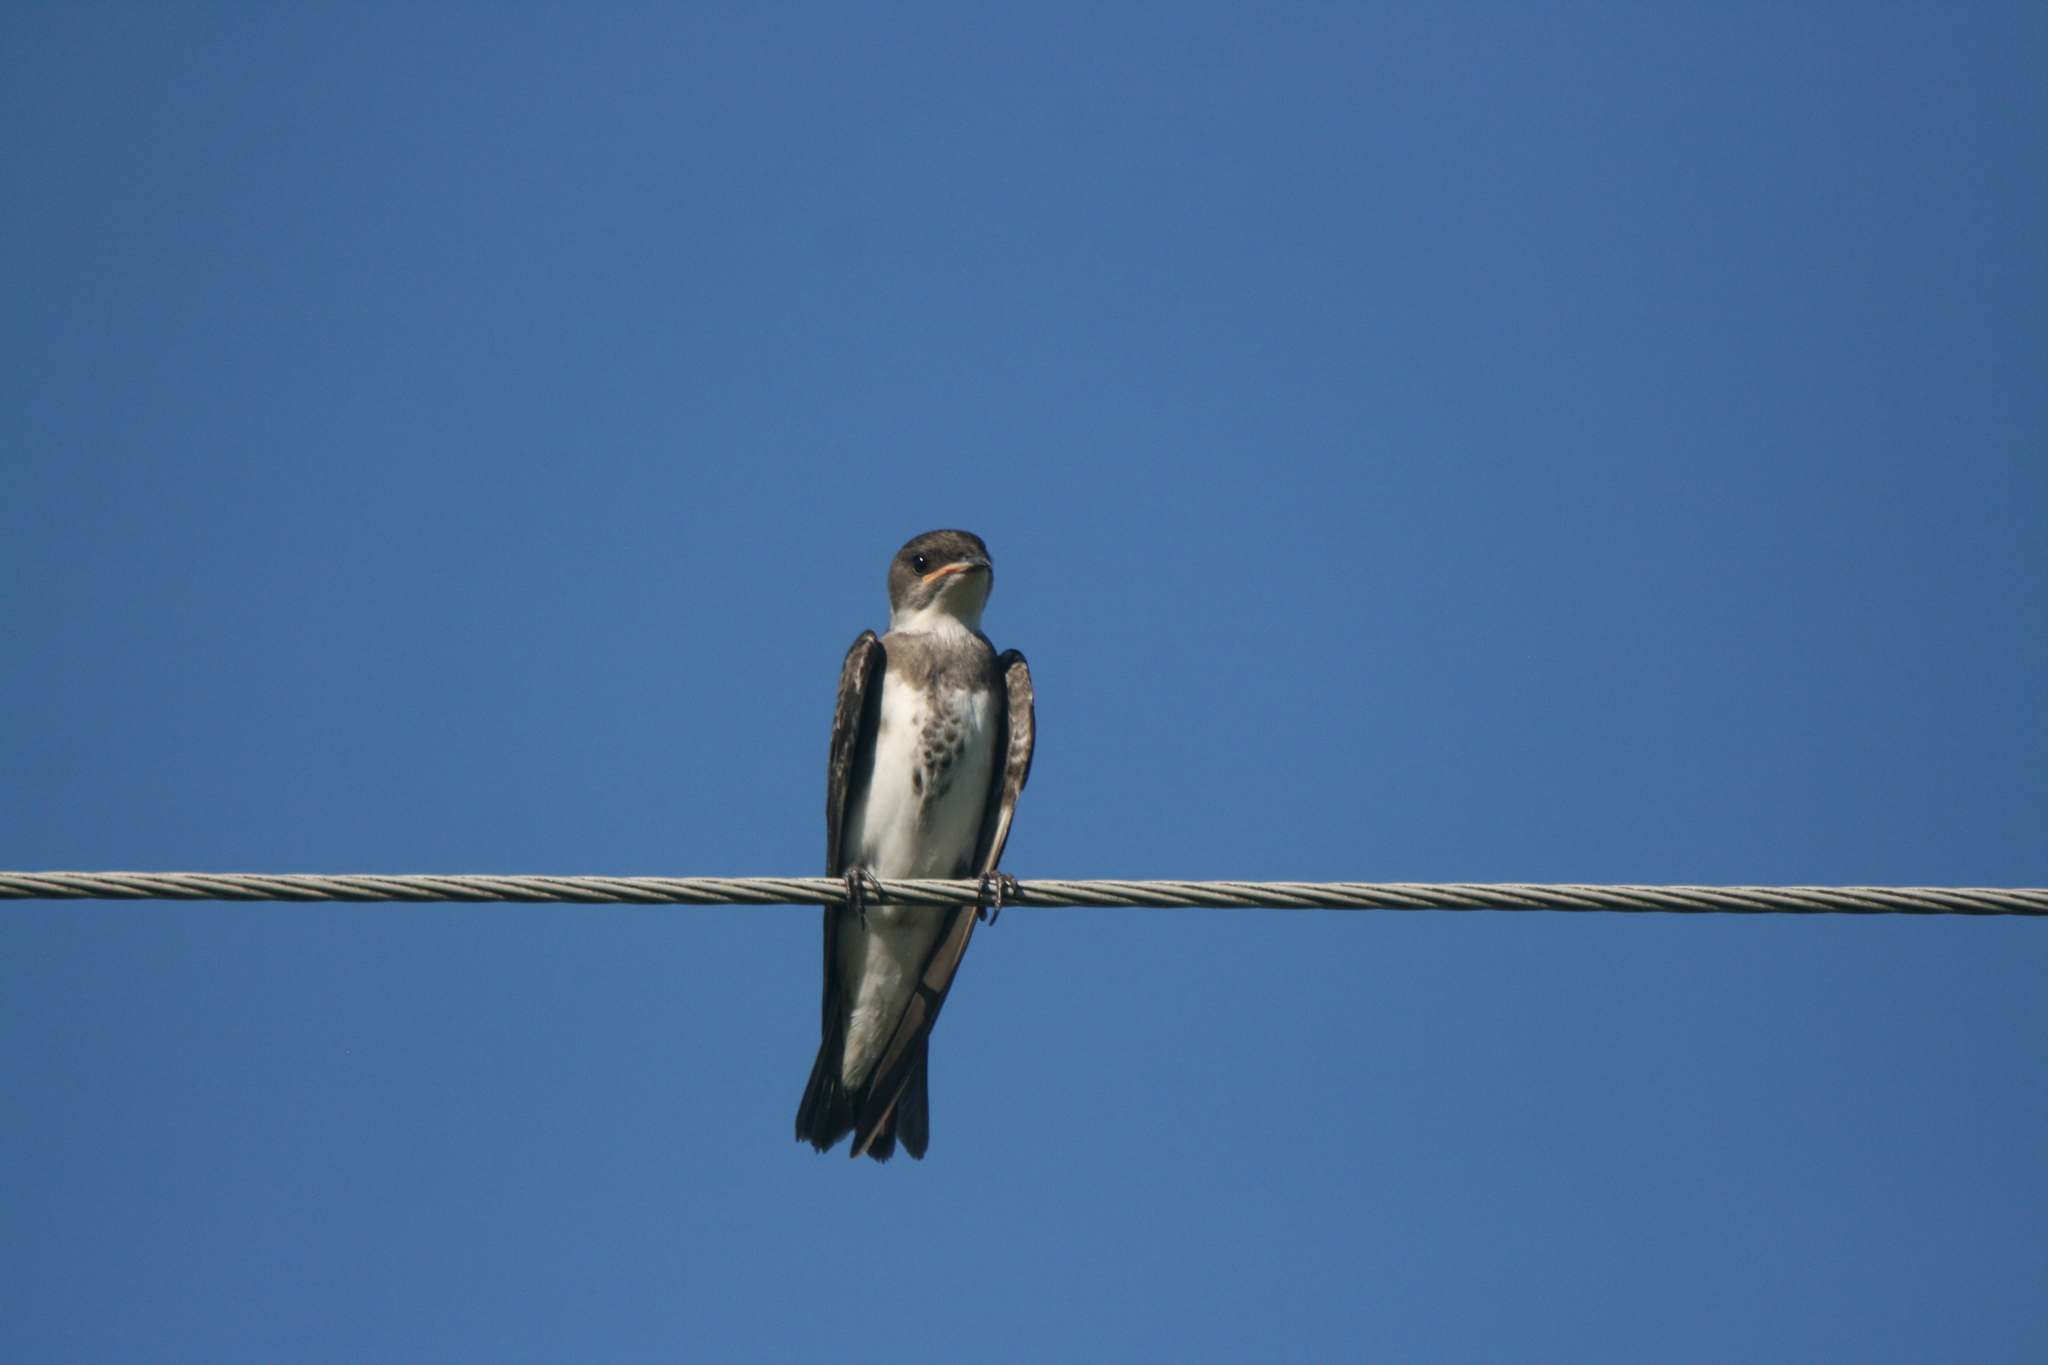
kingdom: Animalia
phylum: Chordata
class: Aves
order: Passeriformes
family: Hirundinidae
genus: Progne
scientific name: Progne tapera
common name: Brown-chested martin
